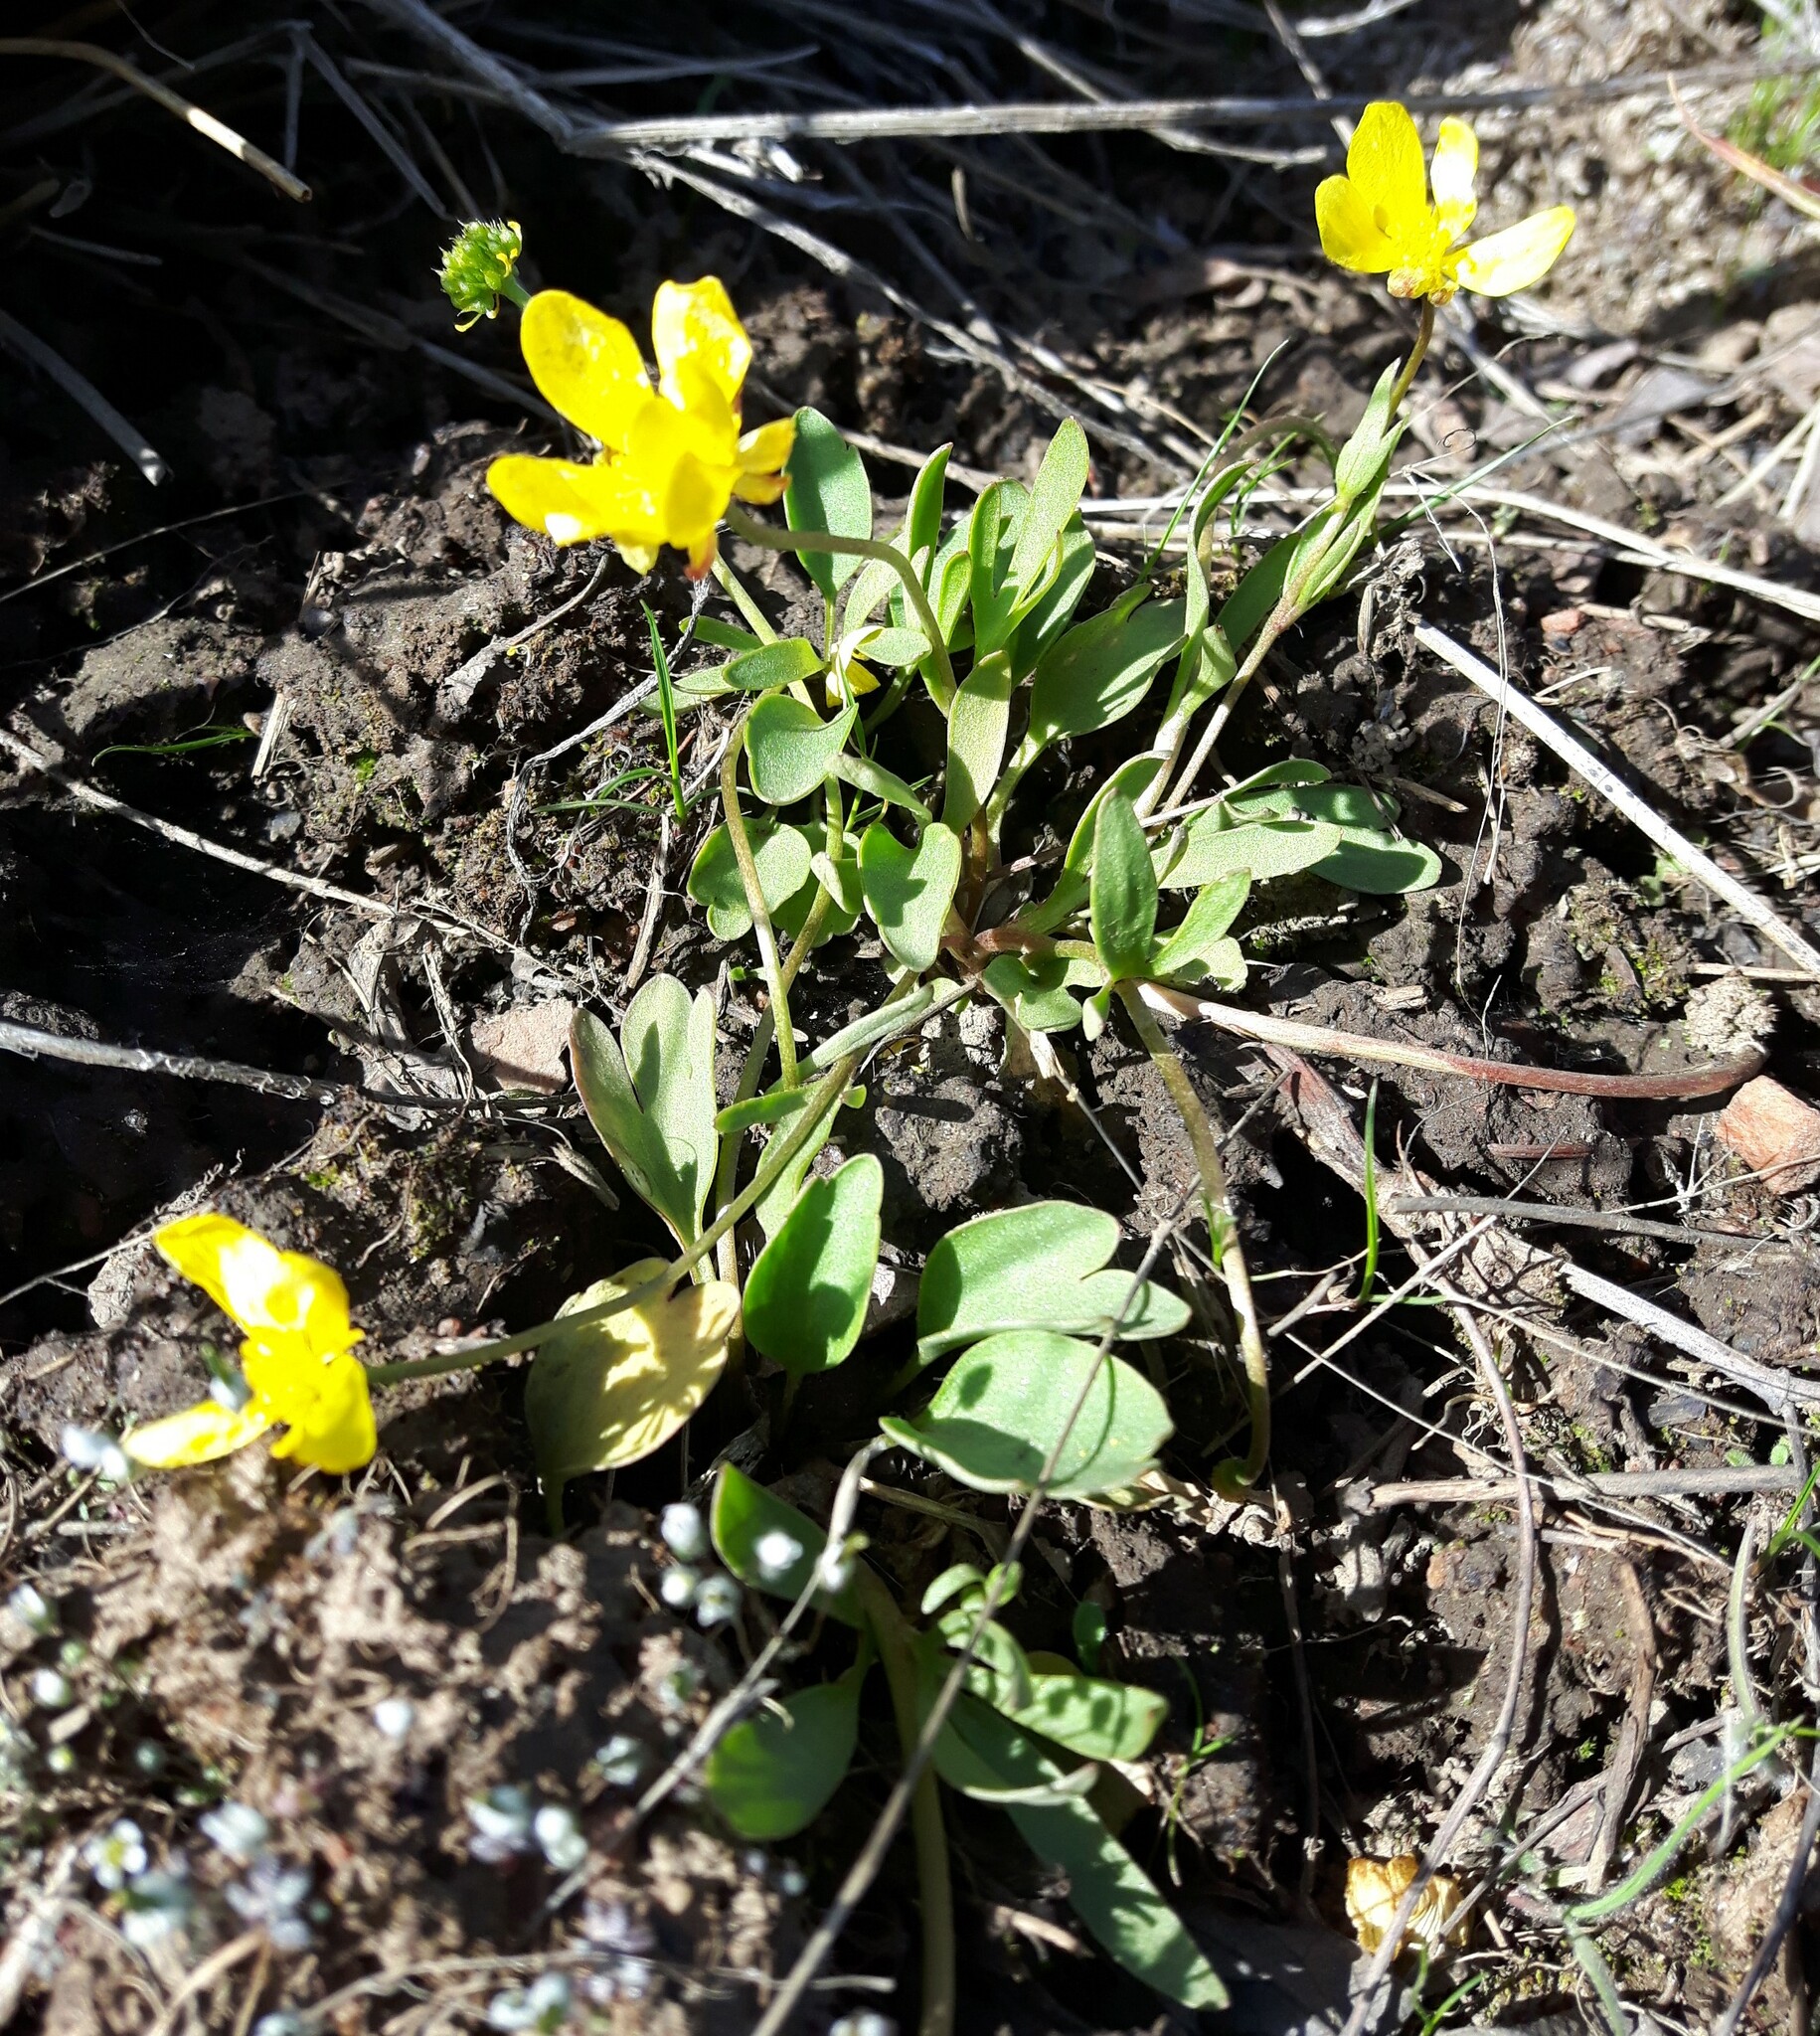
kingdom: Plantae
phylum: Tracheophyta
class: Magnoliopsida
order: Ranunculales
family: Ranunculaceae
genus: Ranunculus
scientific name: Ranunculus glaberrimus
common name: Sagebrush buttercup
